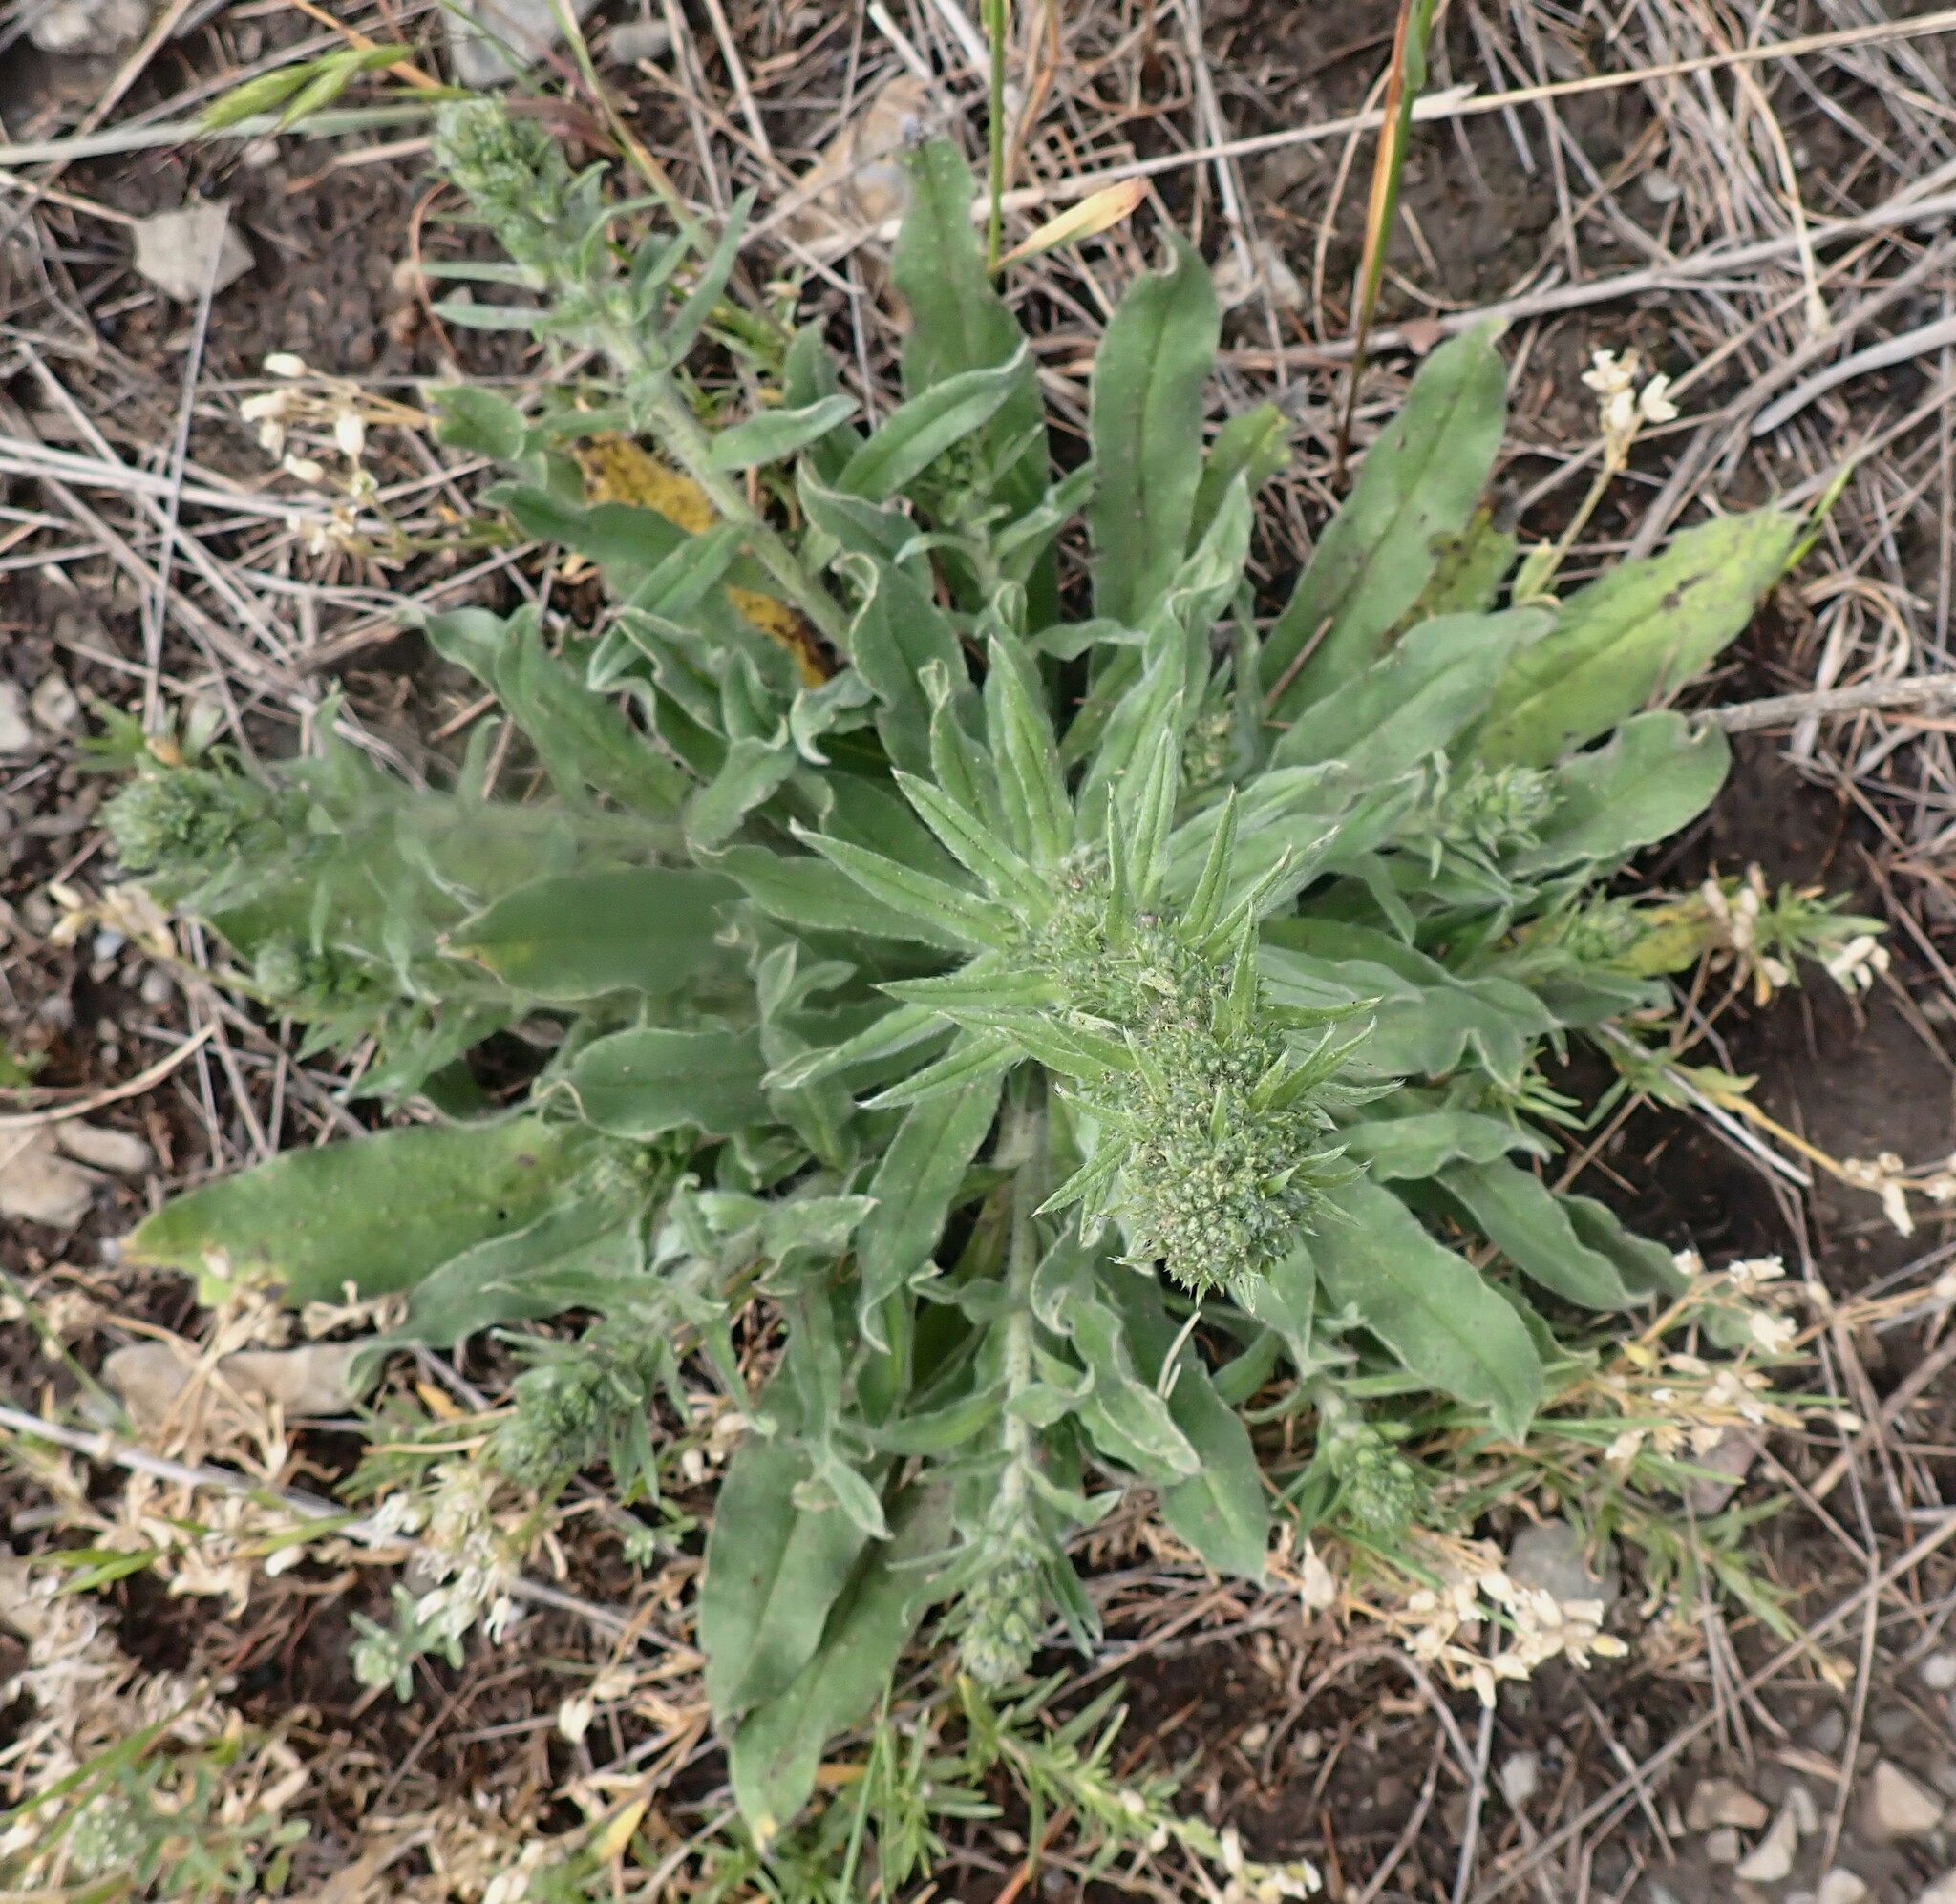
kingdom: Plantae
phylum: Tracheophyta
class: Magnoliopsida
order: Boraginales
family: Boraginaceae
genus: Echium
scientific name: Echium vulgare
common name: Common viper's bugloss
